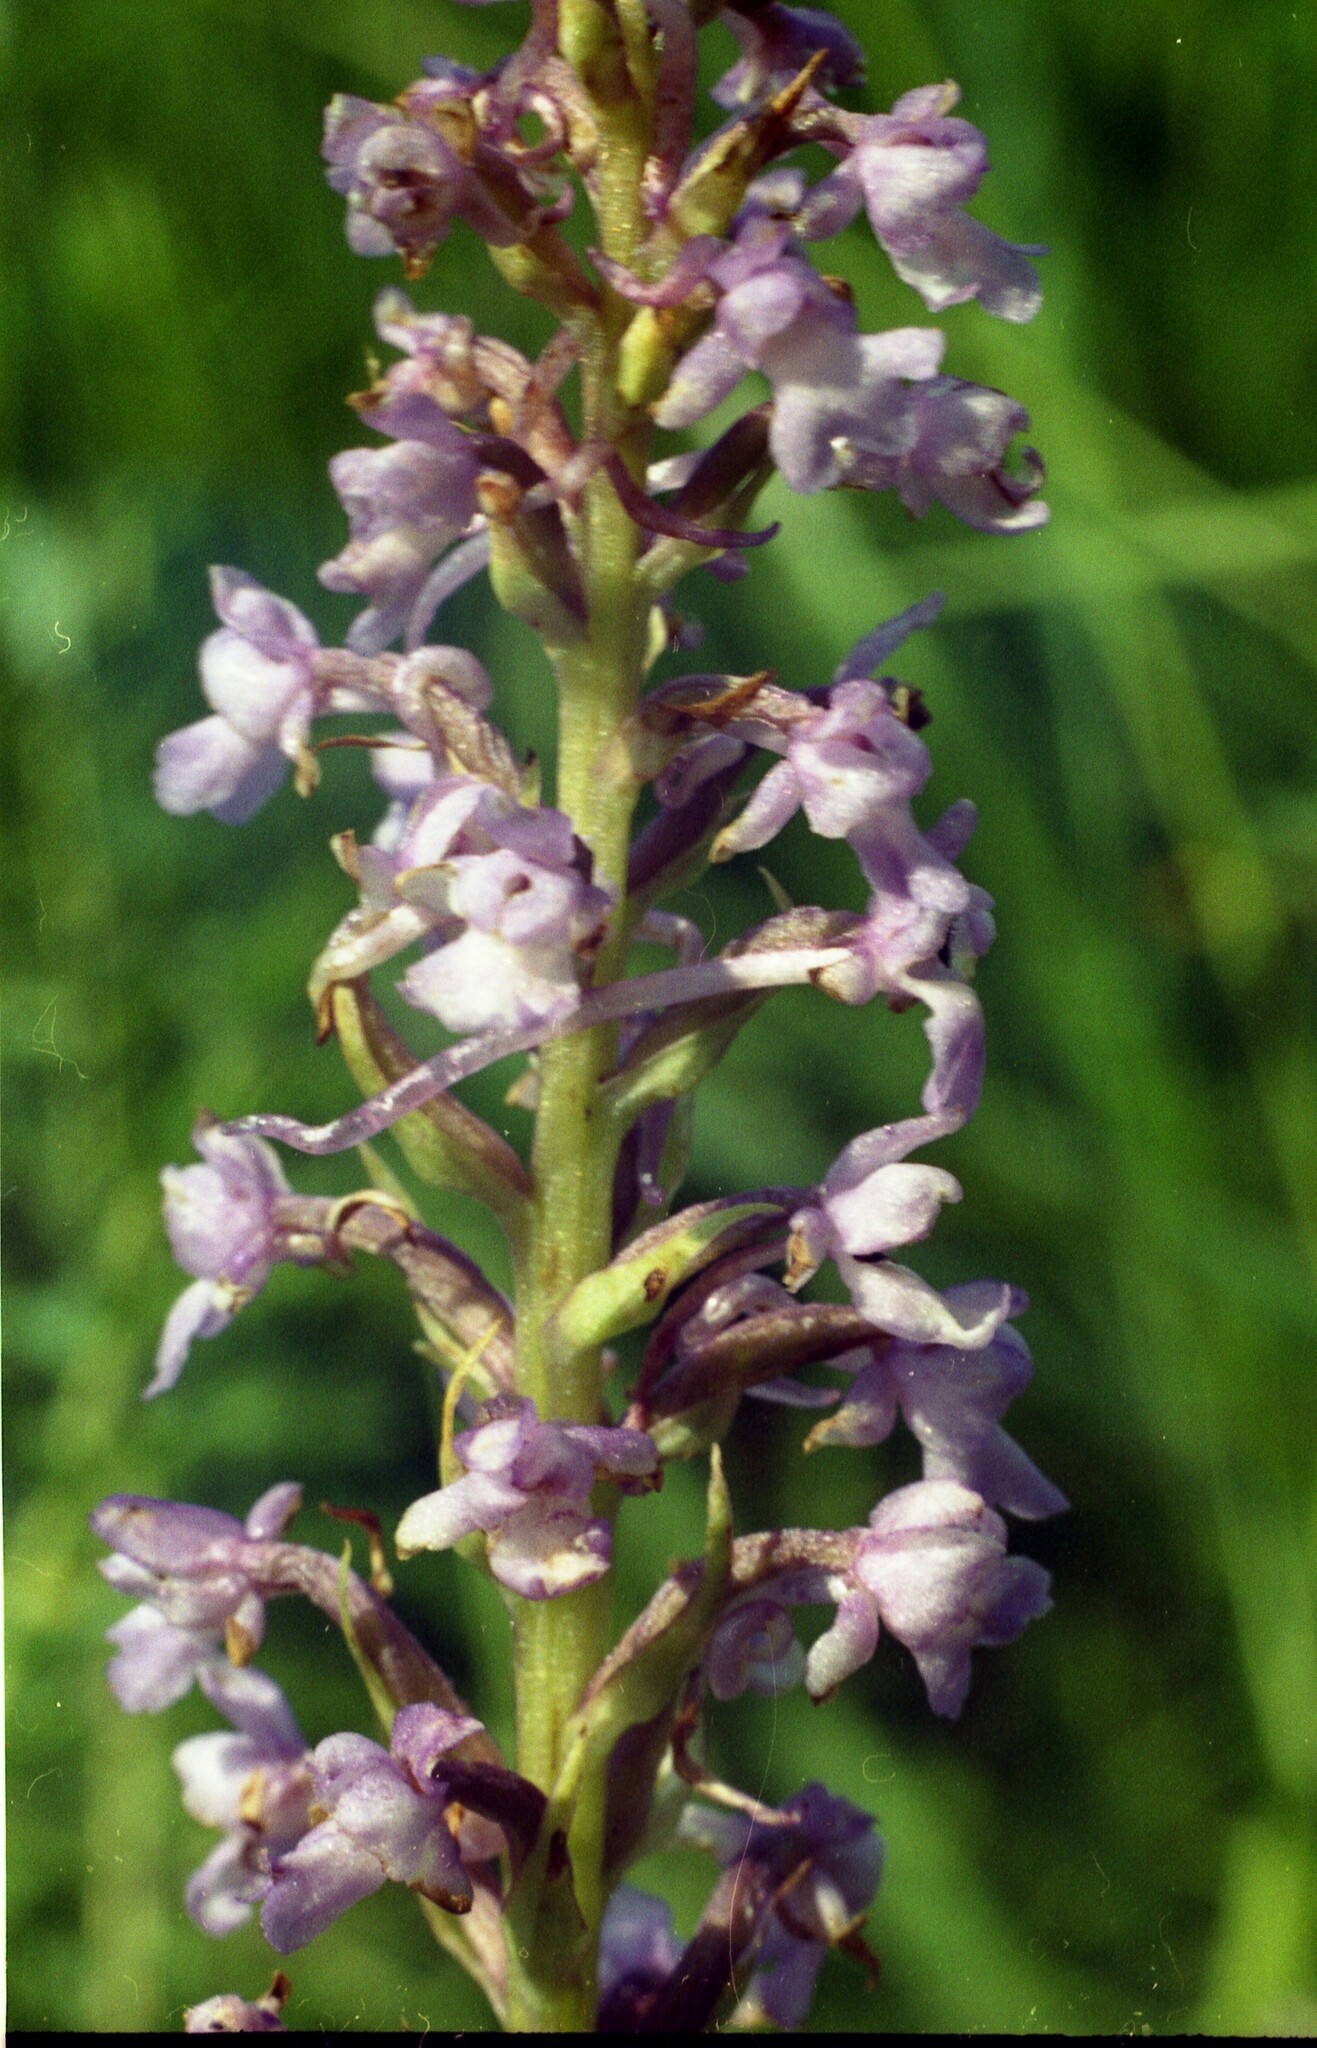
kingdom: Plantae
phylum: Tracheophyta
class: Liliopsida
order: Asparagales
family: Orchidaceae
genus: Gymnadenia
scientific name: Gymnadenia conopsea
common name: Fragrant orchid
